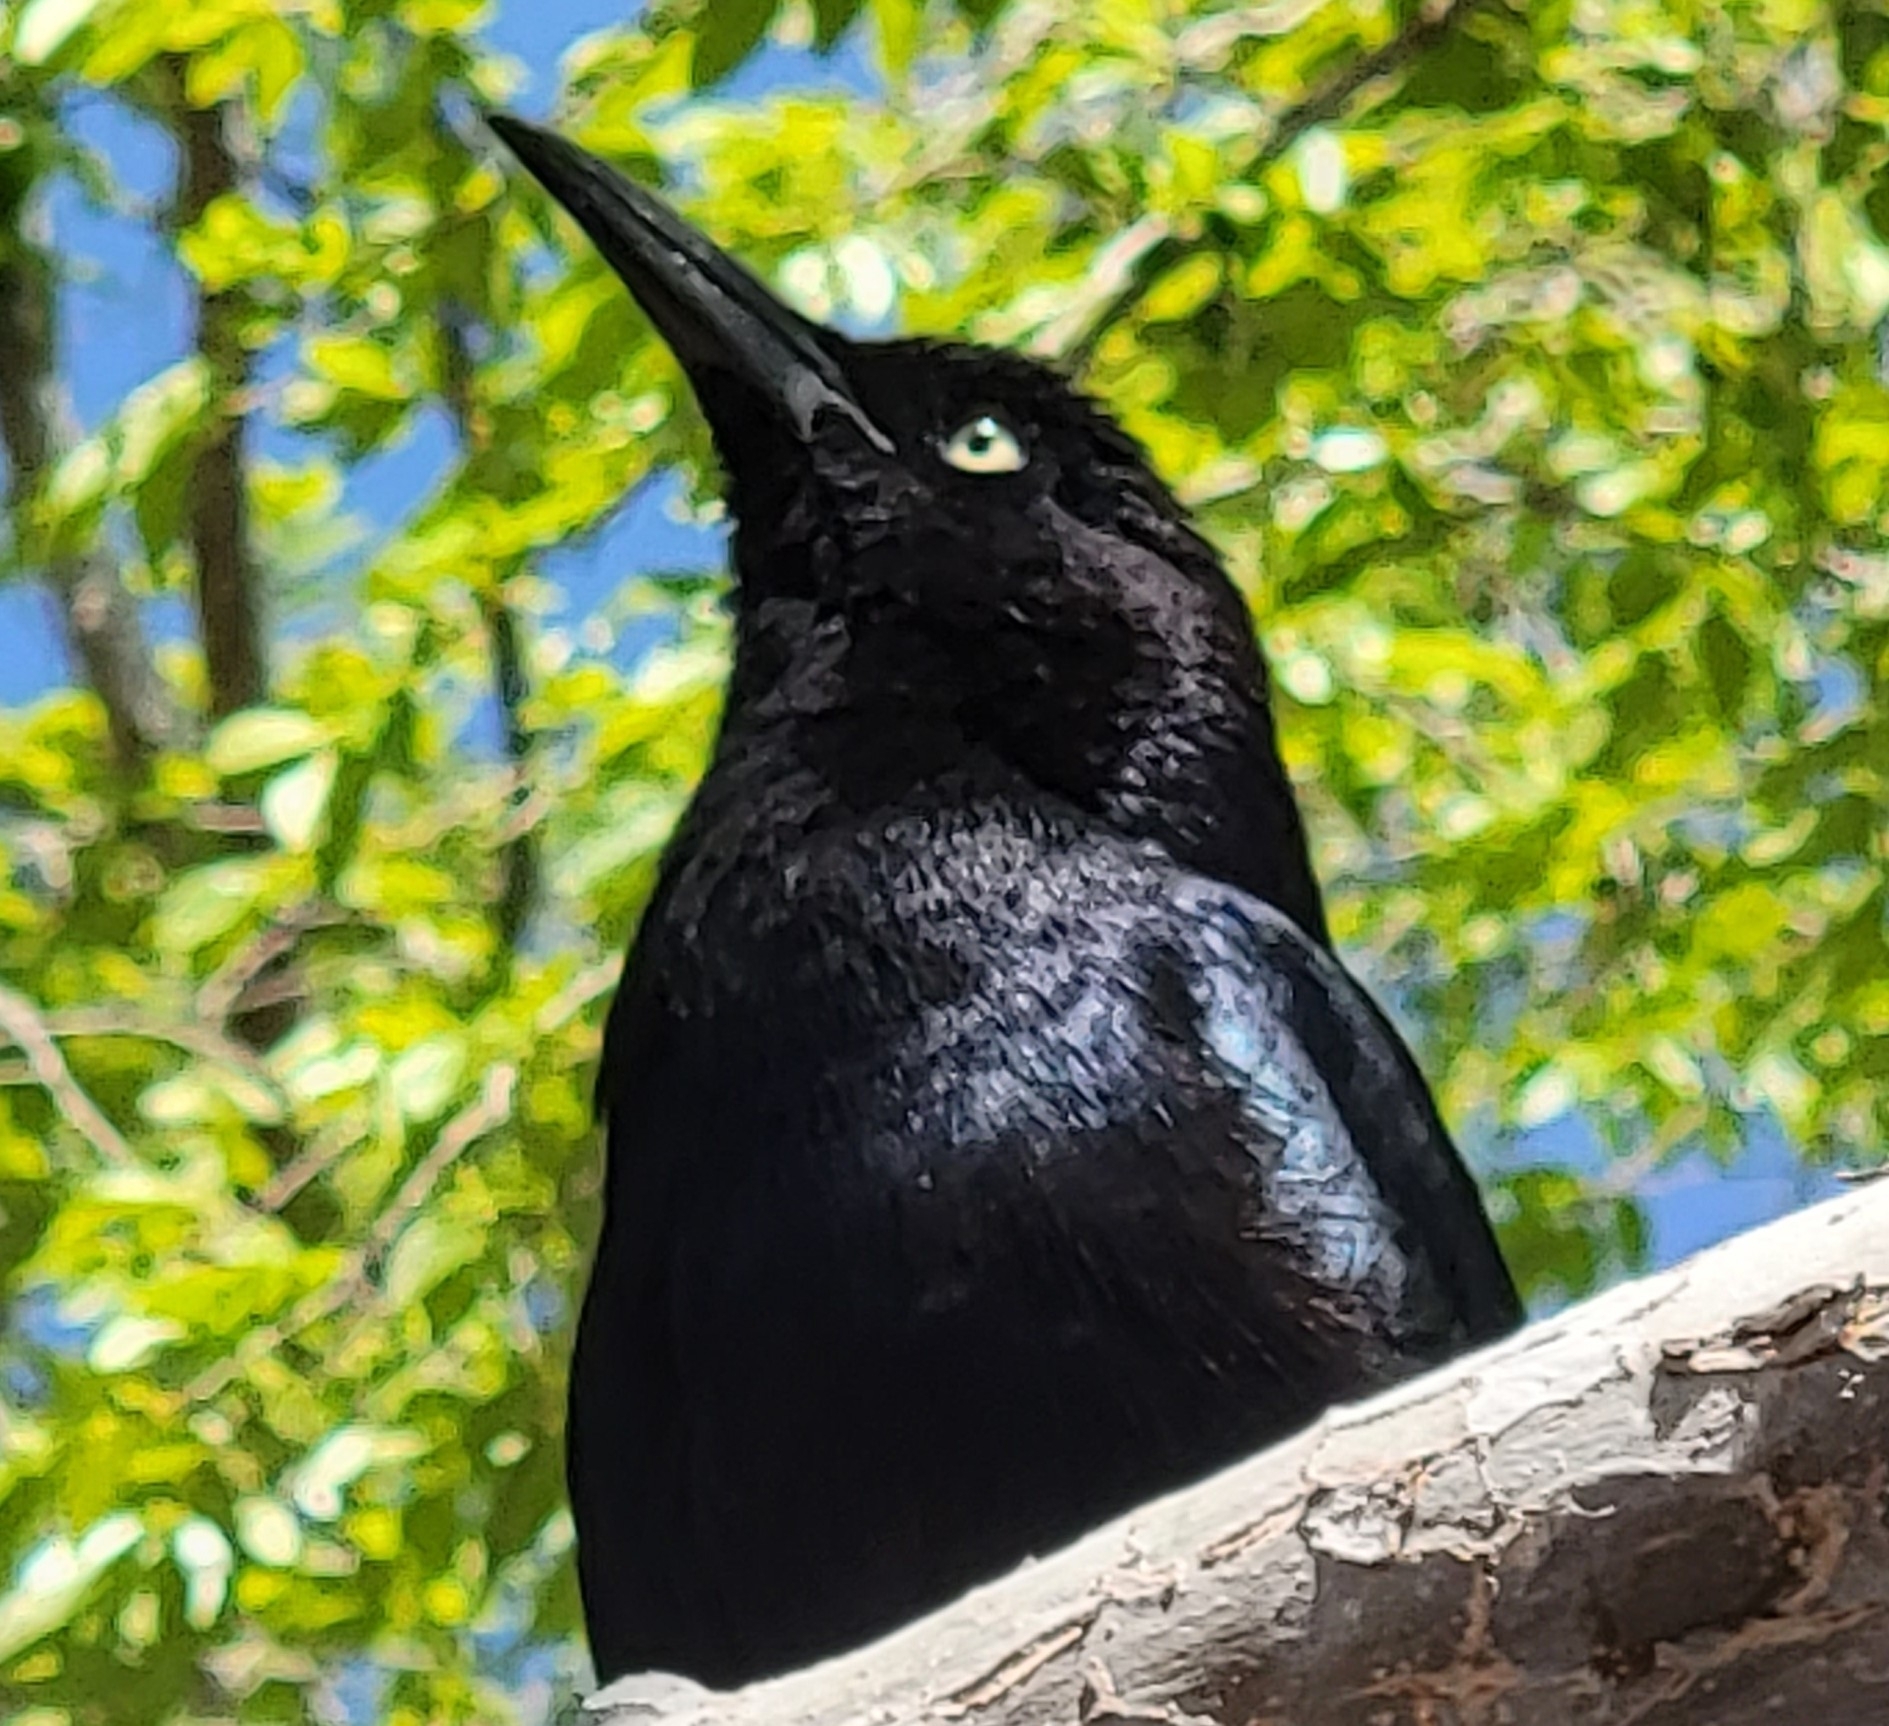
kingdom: Animalia
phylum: Chordata
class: Aves
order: Passeriformes
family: Icteridae
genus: Quiscalus
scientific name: Quiscalus mexicanus
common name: Great-tailed grackle
